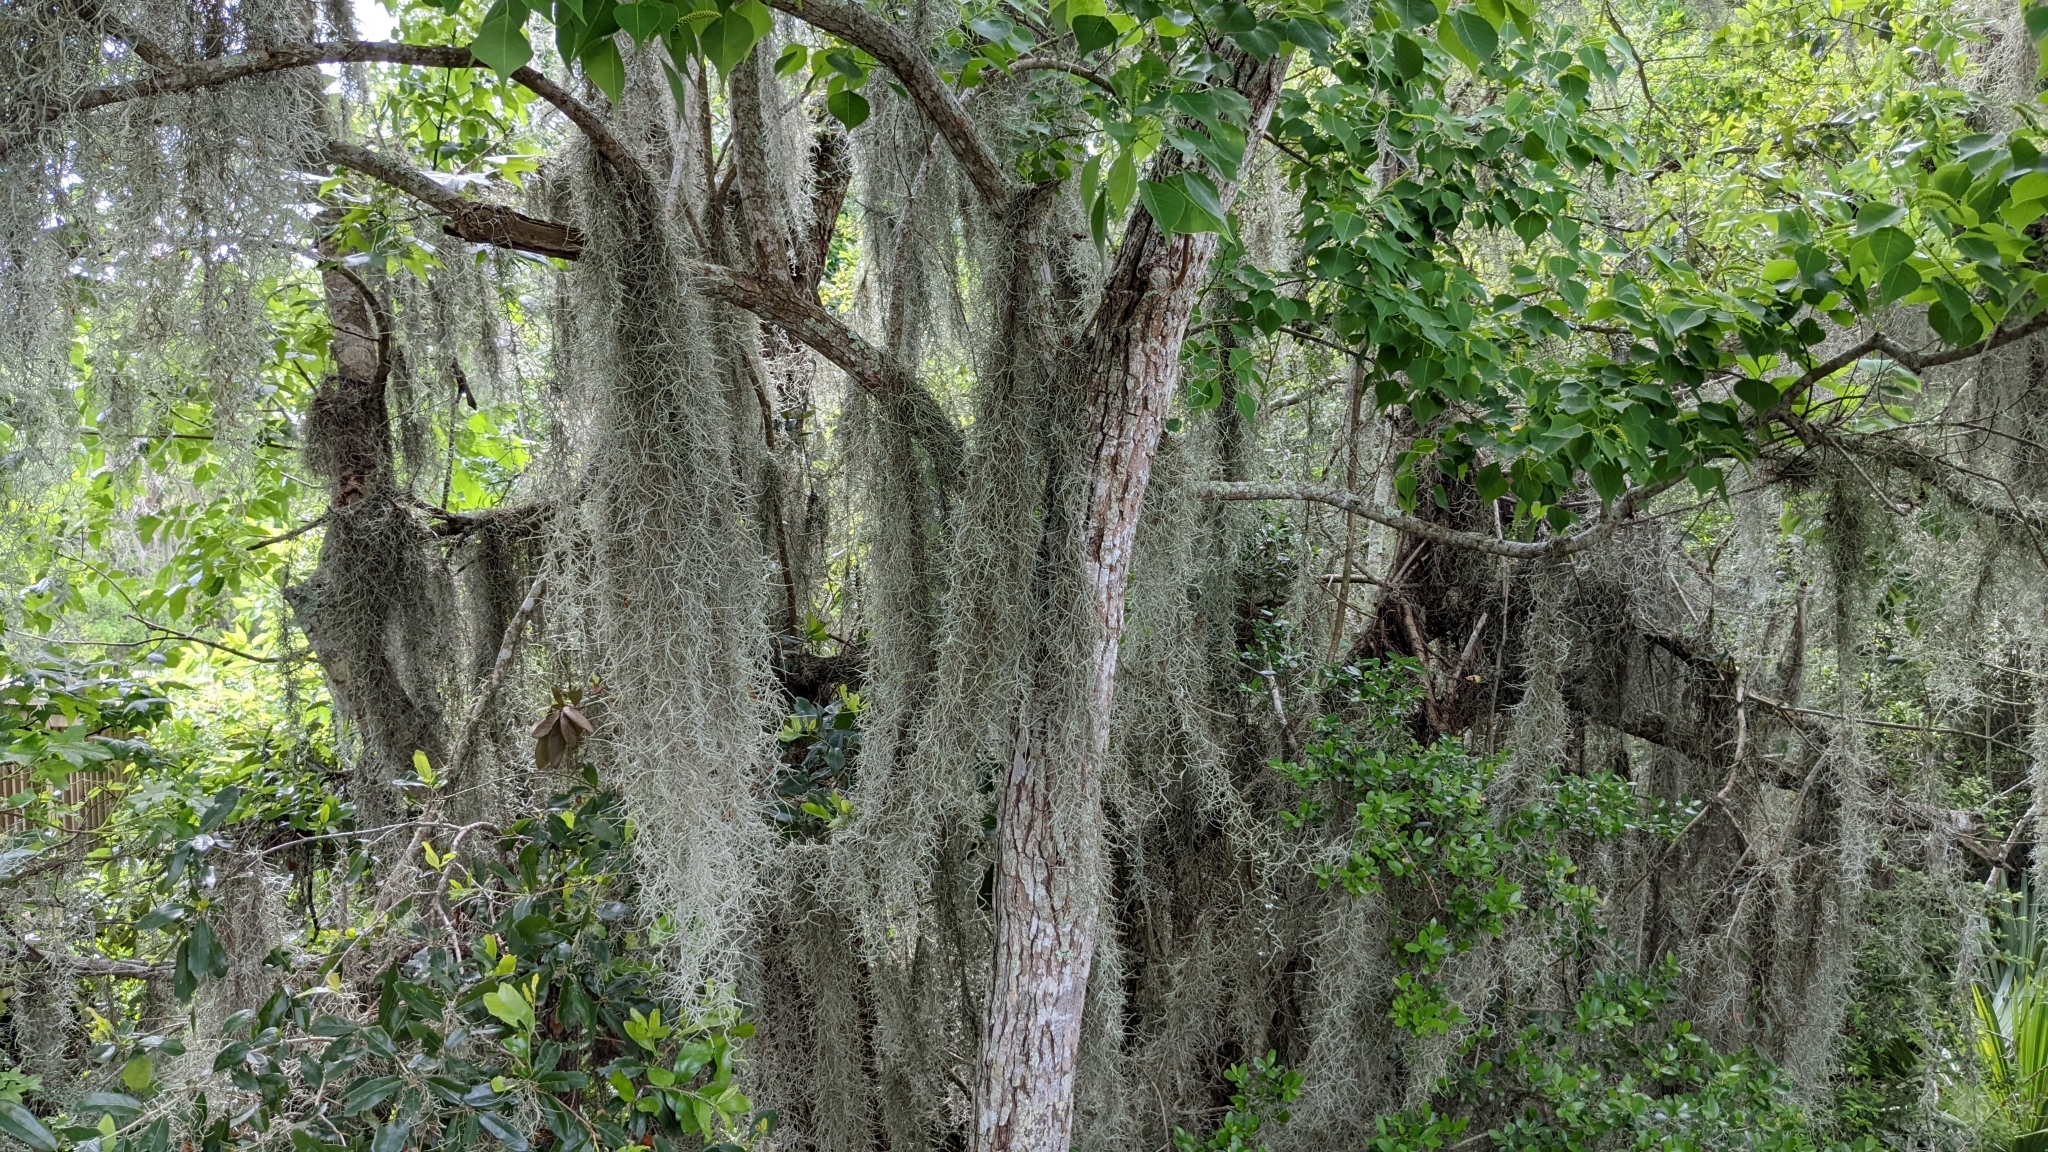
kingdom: Plantae
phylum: Tracheophyta
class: Magnoliopsida
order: Malpighiales
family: Euphorbiaceae
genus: Triadica
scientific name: Triadica sebifera
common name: Chinese tallow
